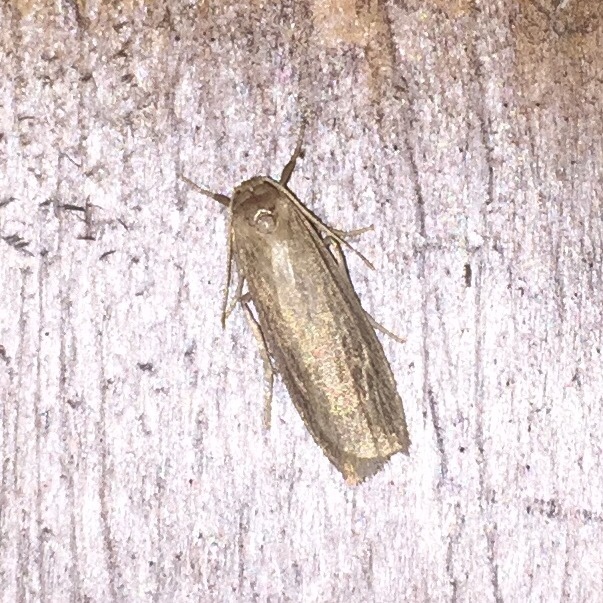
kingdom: Animalia
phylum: Arthropoda
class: Insecta
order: Lepidoptera
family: Erebidae
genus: Crambidia
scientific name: Crambidia pallida
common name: Pale lichen moth
